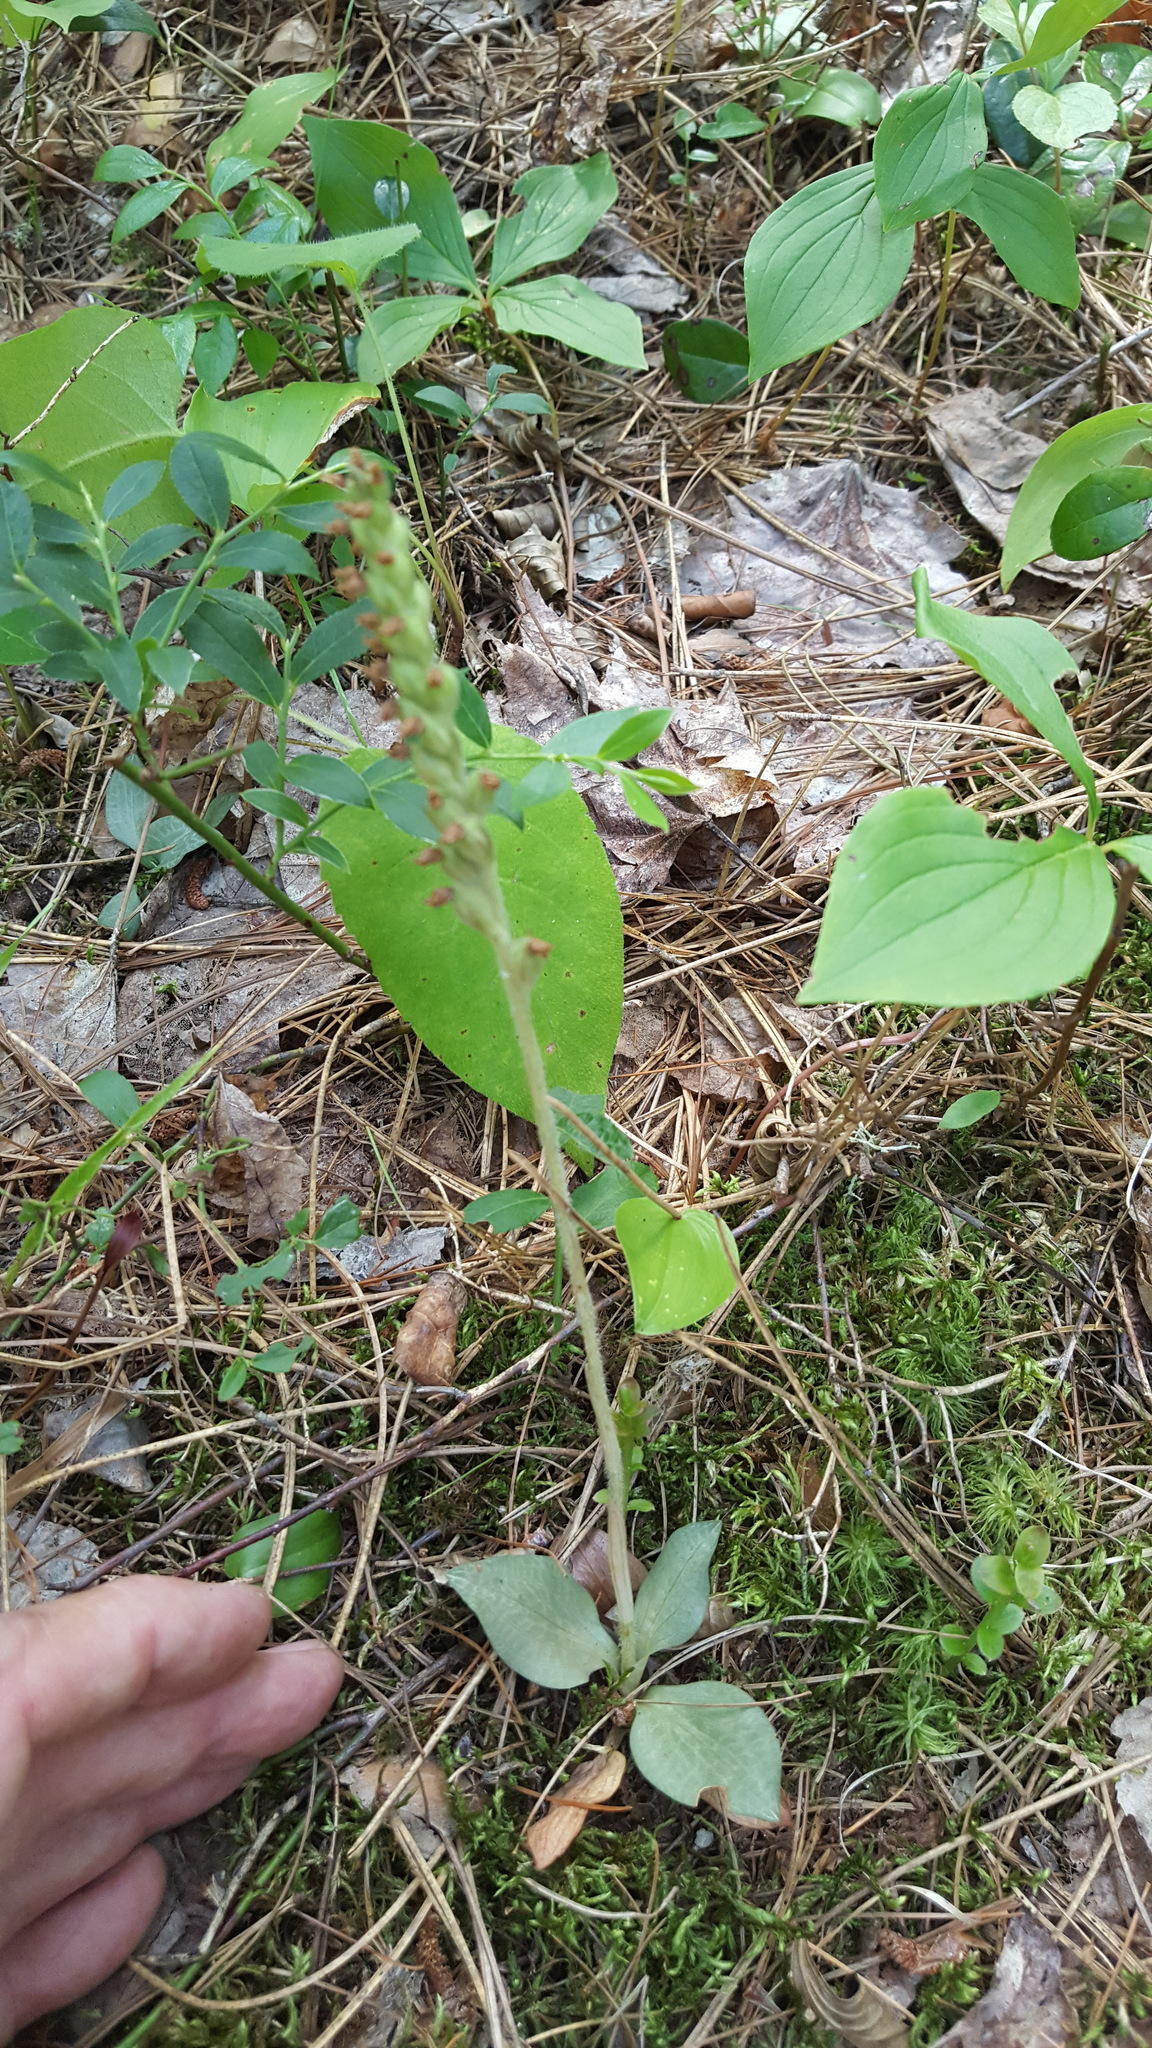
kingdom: Plantae
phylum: Tracheophyta
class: Liliopsida
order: Asparagales
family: Orchidaceae
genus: Goodyera
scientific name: Goodyera tesselata
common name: Checkered rattlesnake-plantain
